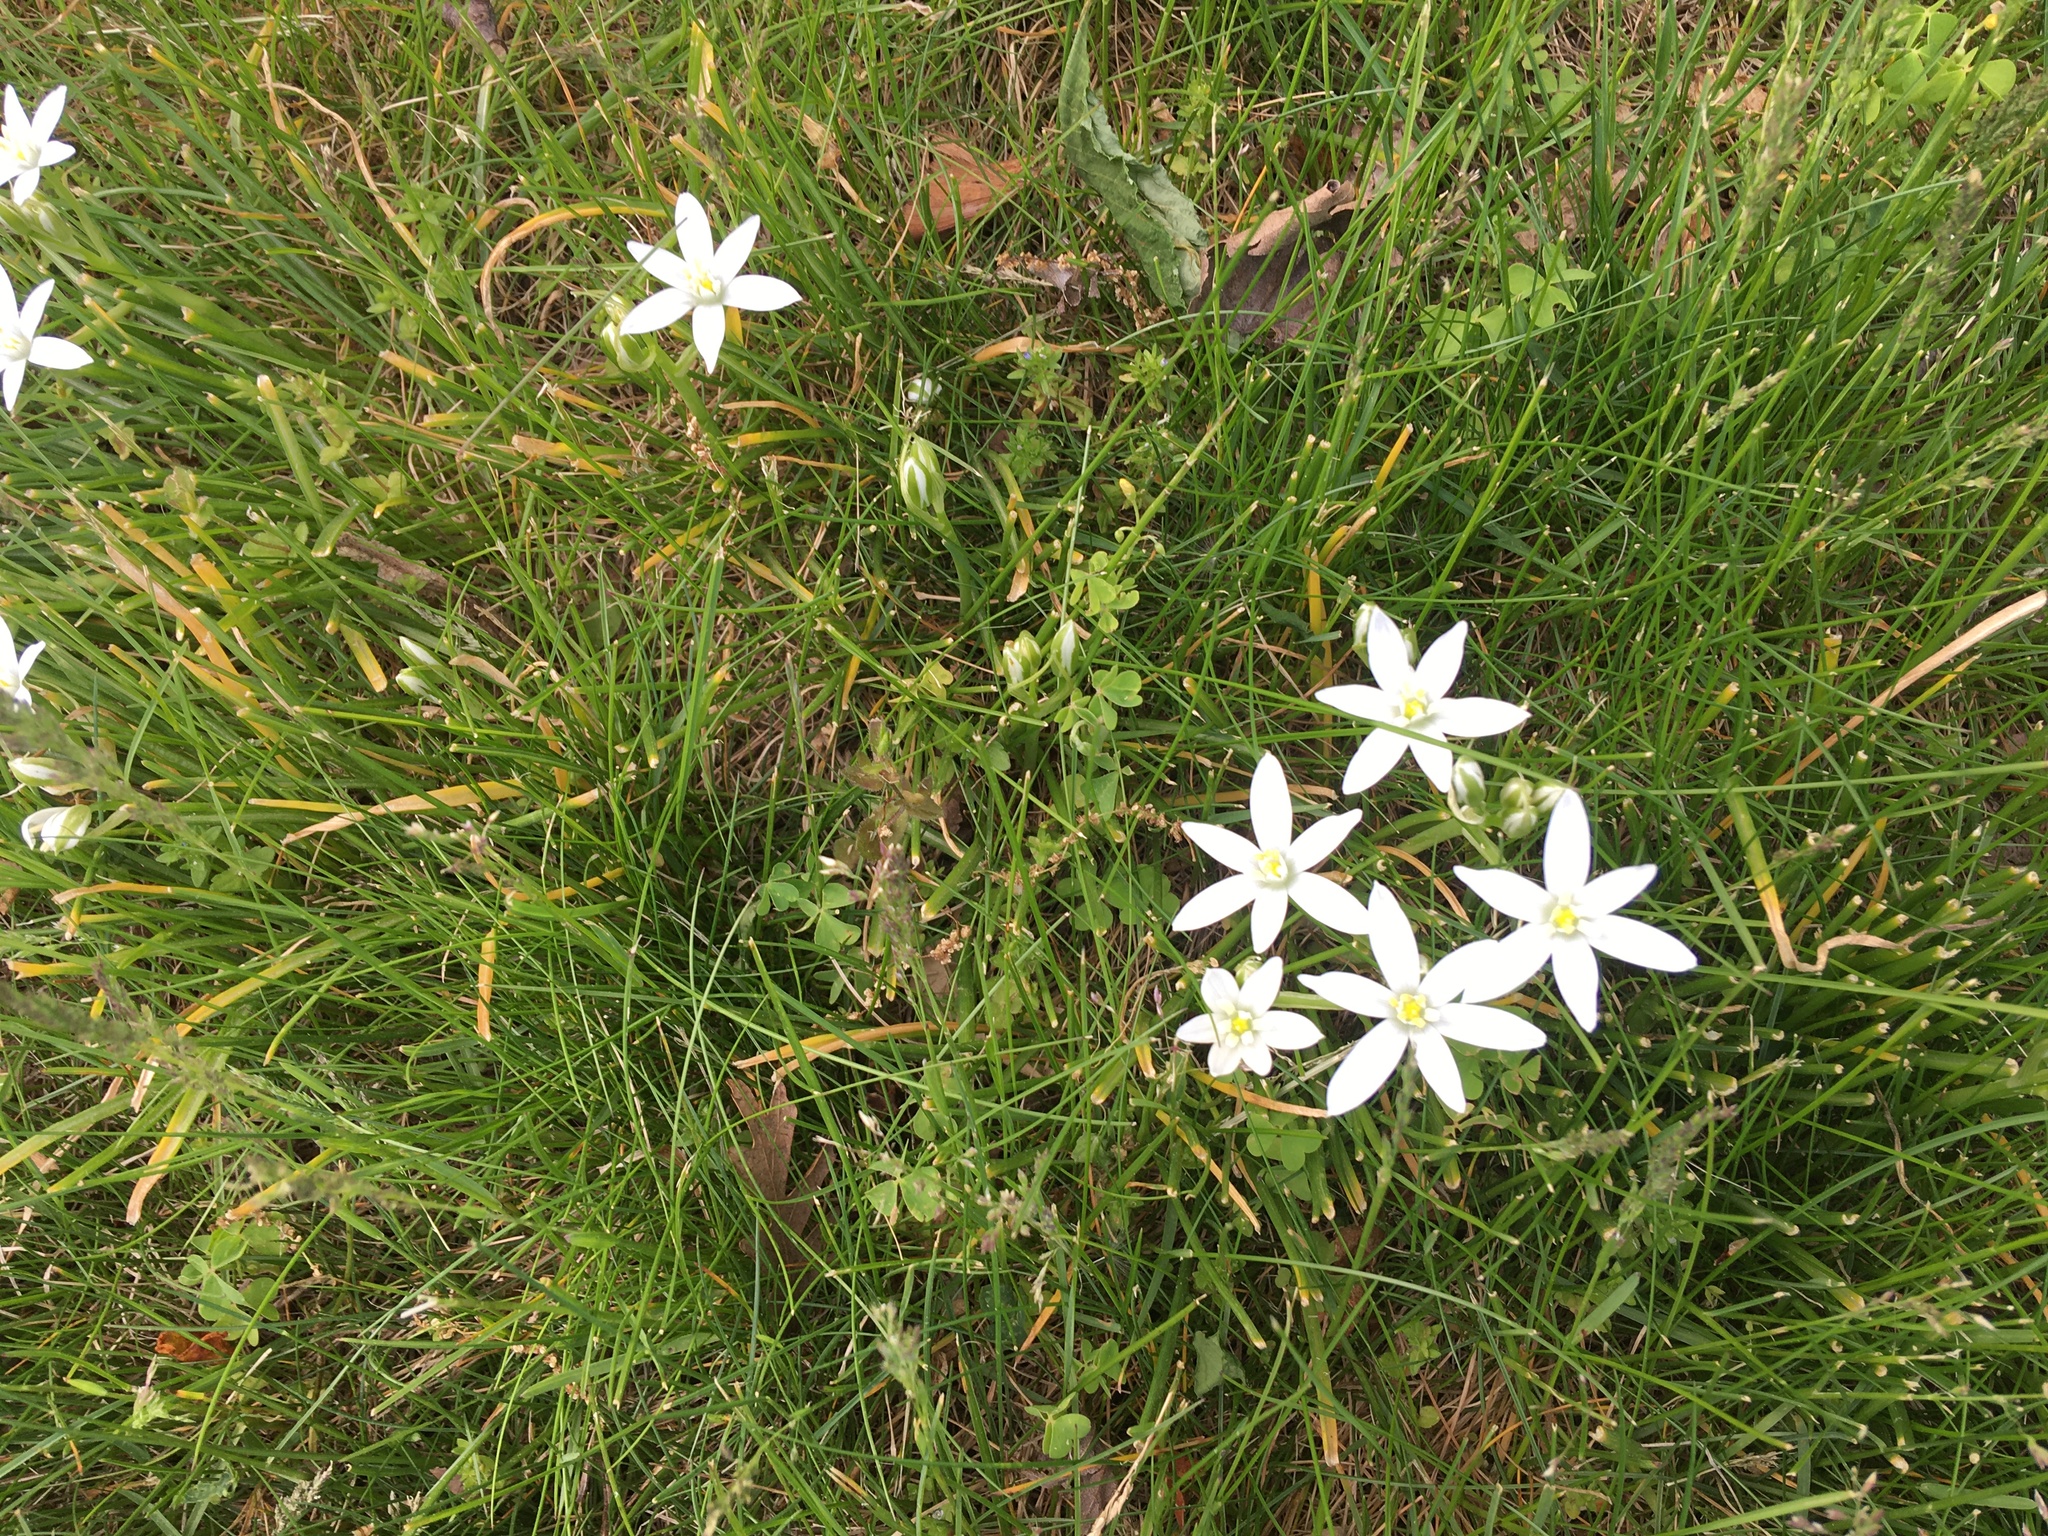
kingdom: Plantae
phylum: Tracheophyta
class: Liliopsida
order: Asparagales
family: Asparagaceae
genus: Ornithogalum
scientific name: Ornithogalum umbellatum
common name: Garden star-of-bethlehem
